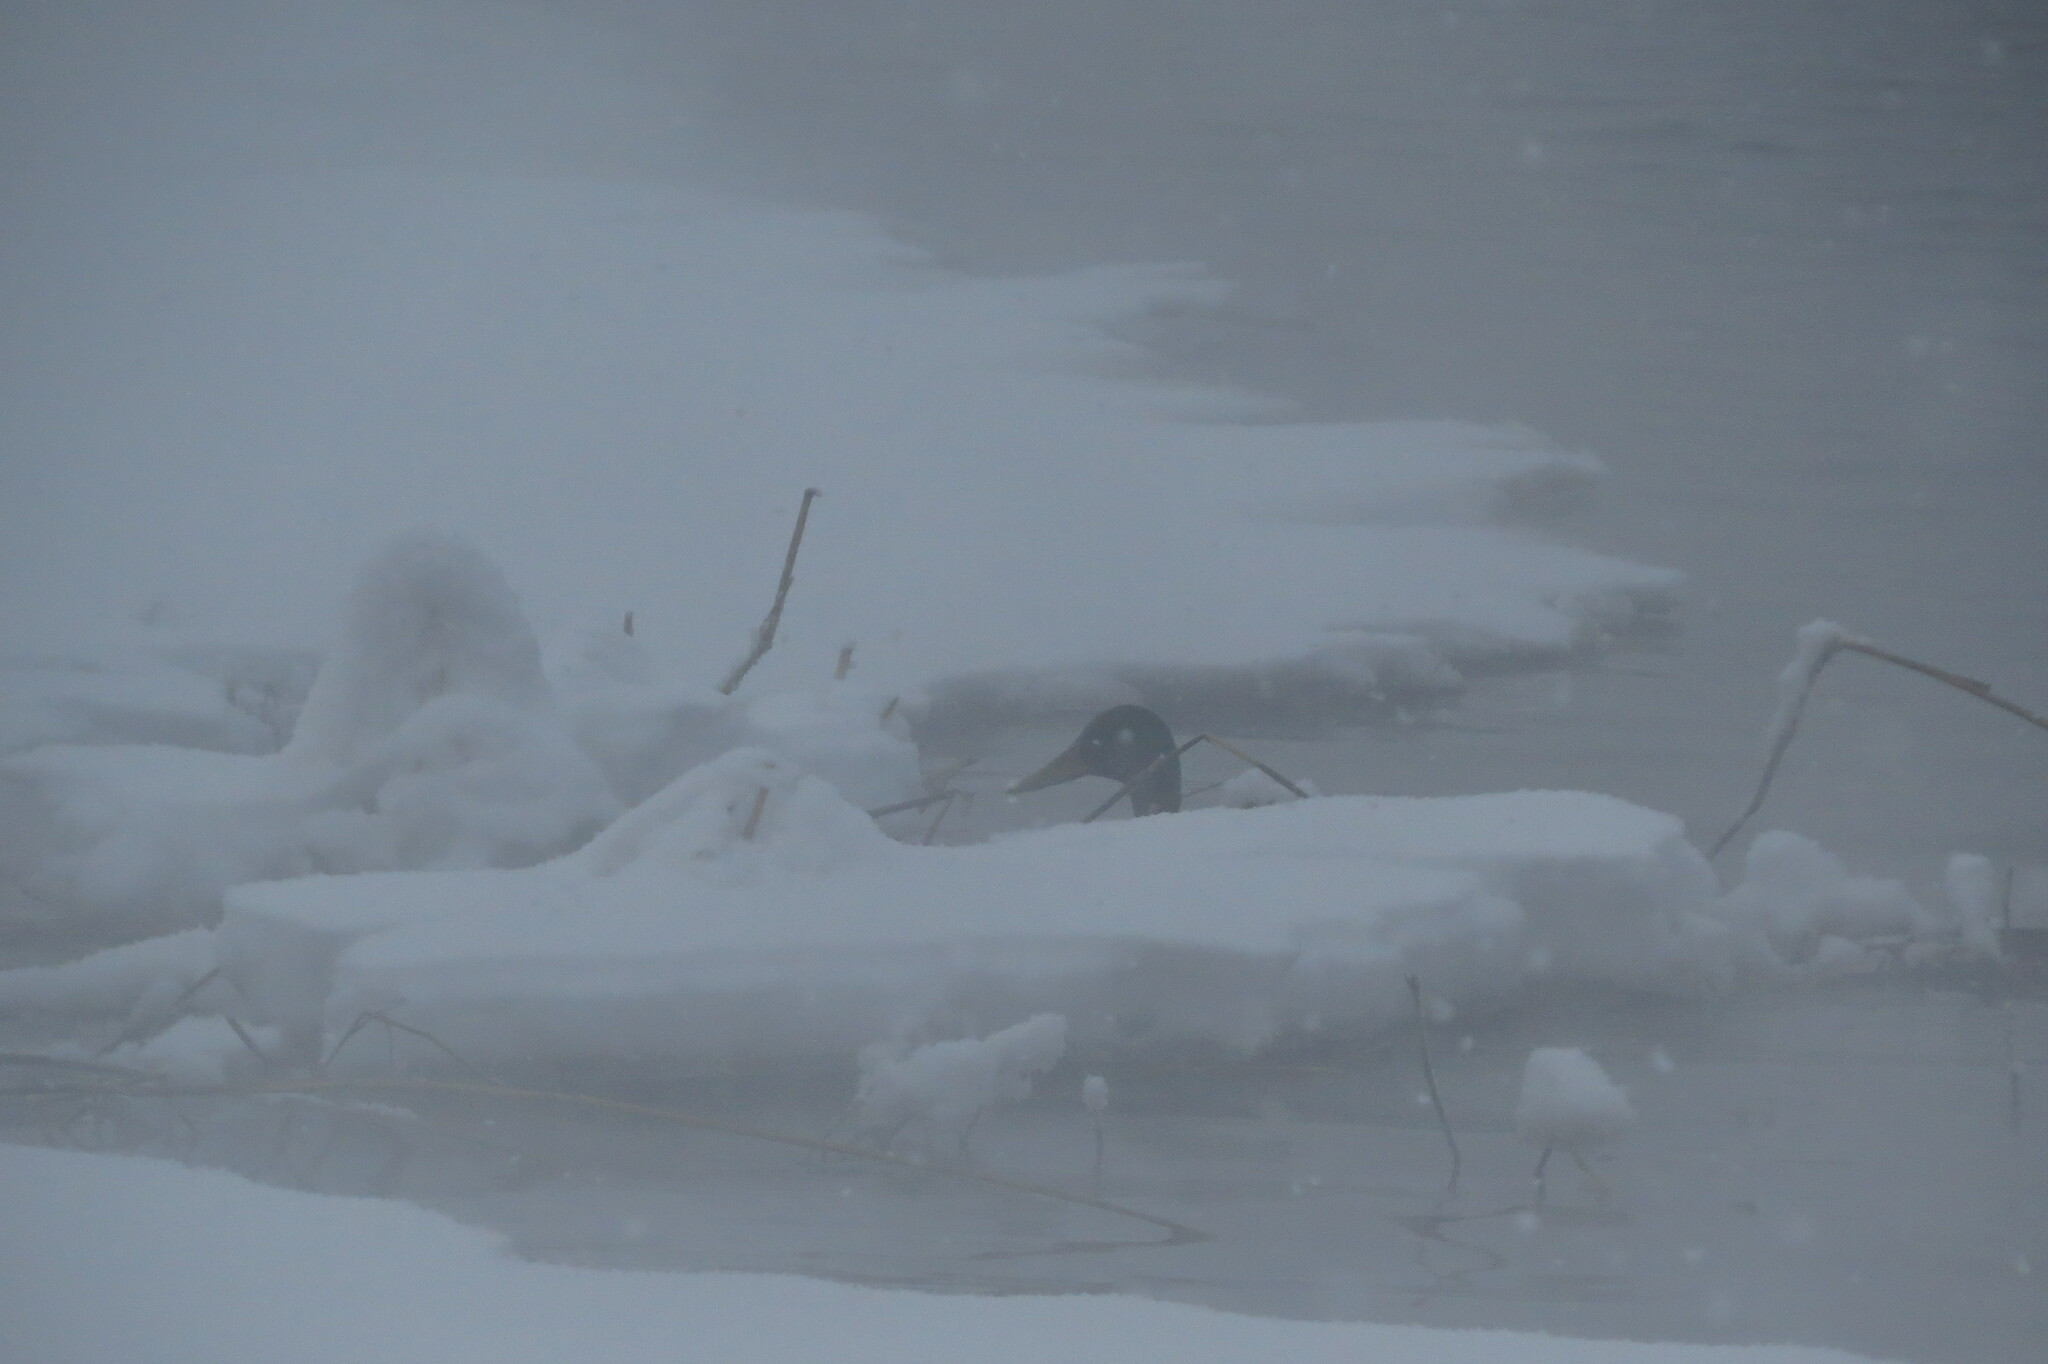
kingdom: Animalia
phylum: Chordata
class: Aves
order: Anseriformes
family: Anatidae
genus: Anas
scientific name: Anas platyrhynchos
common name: Mallard
